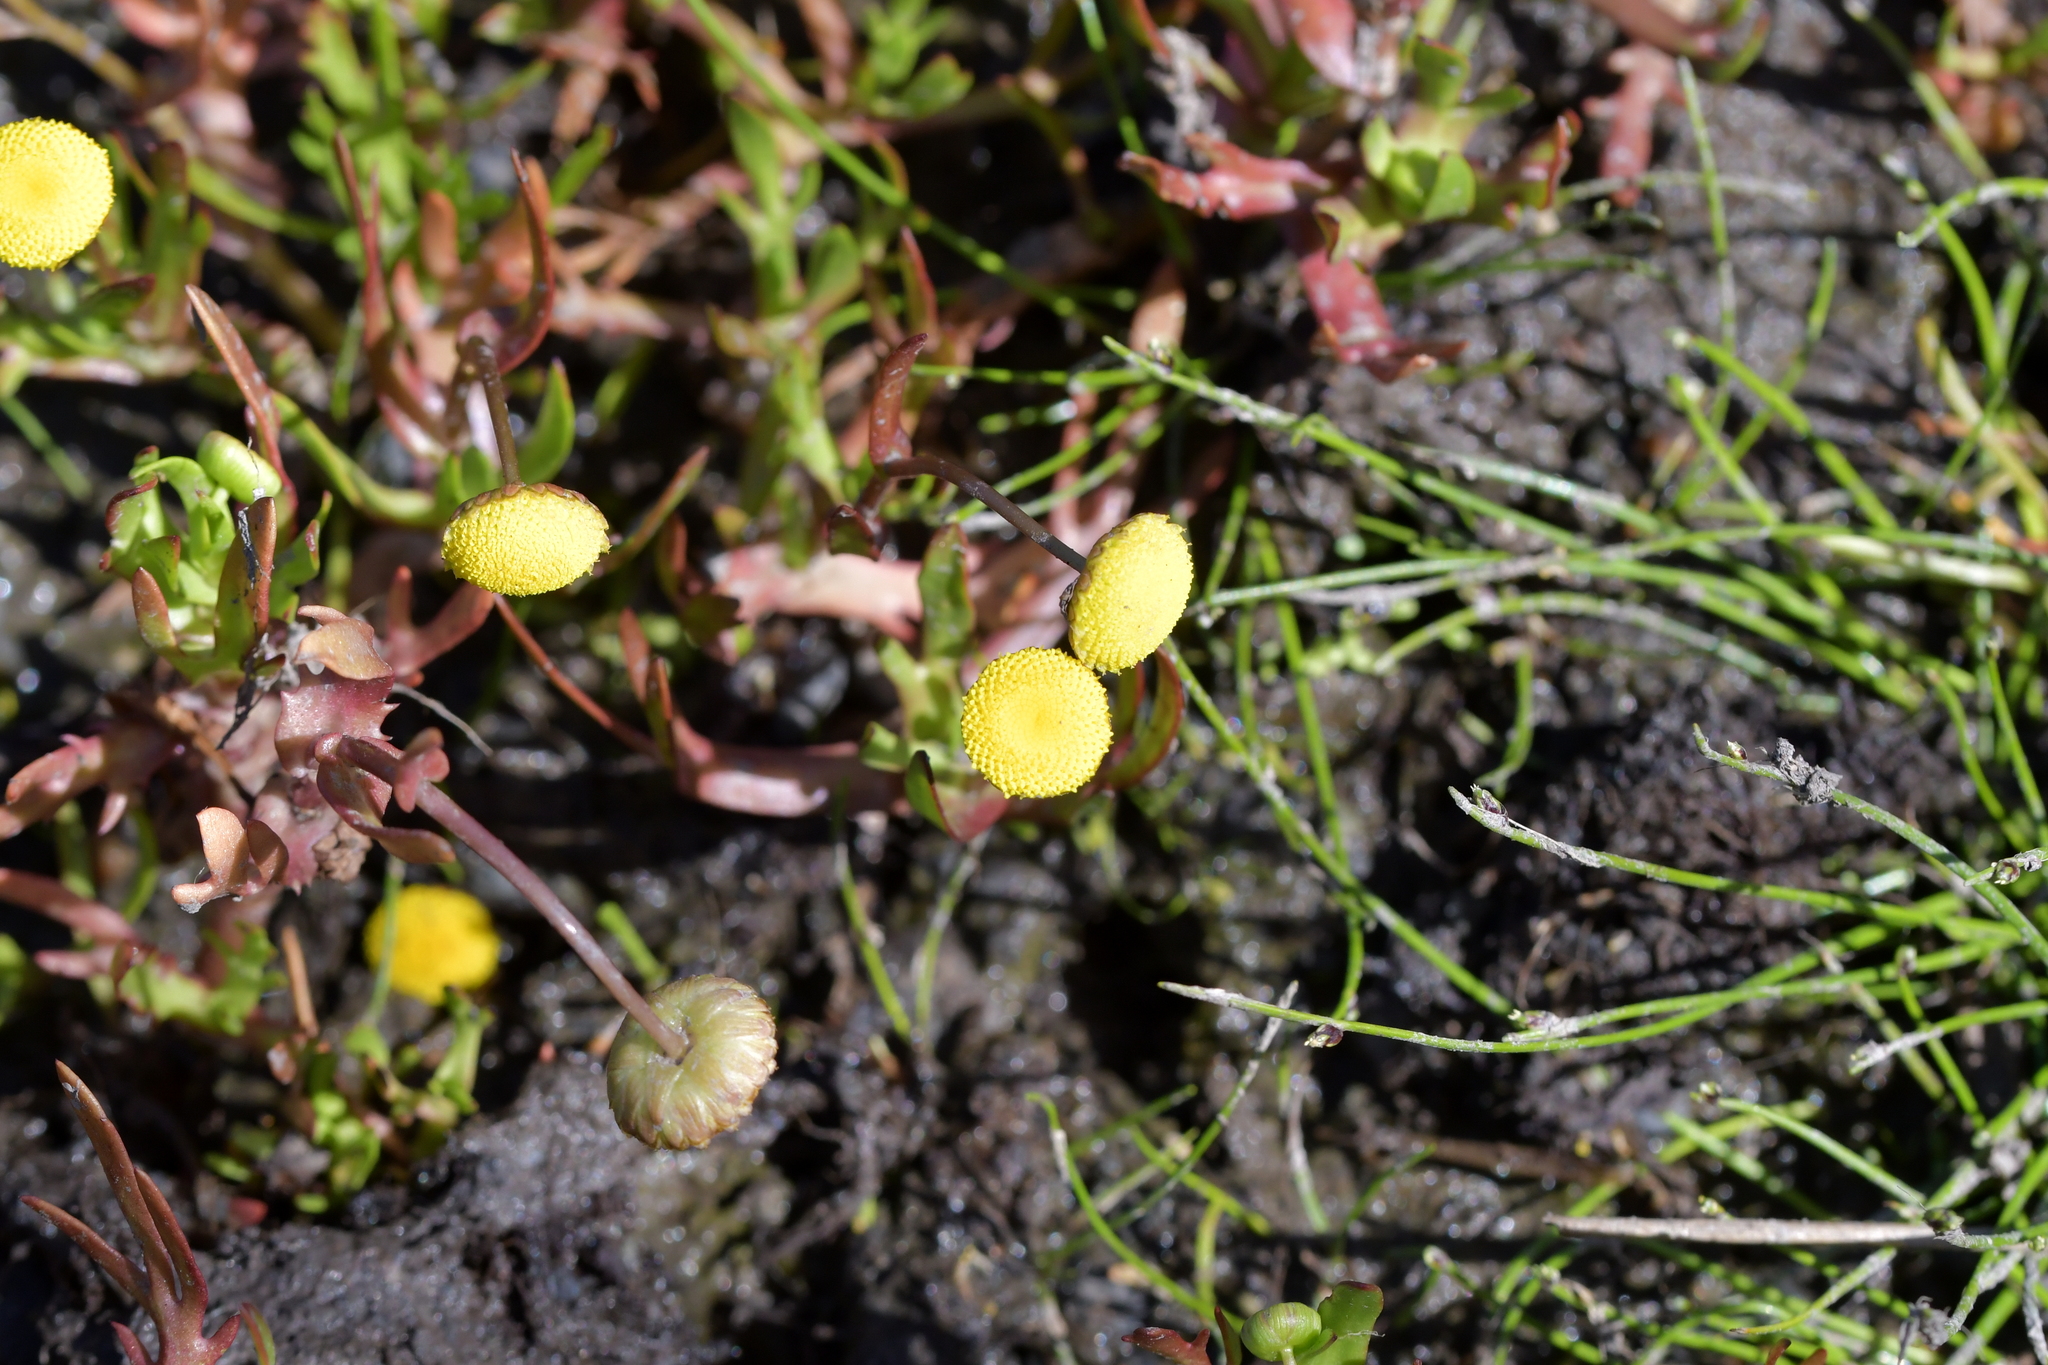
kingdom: Plantae
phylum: Tracheophyta
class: Magnoliopsida
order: Asterales
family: Asteraceae
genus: Cotula
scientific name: Cotula coronopifolia
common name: Buttonweed
